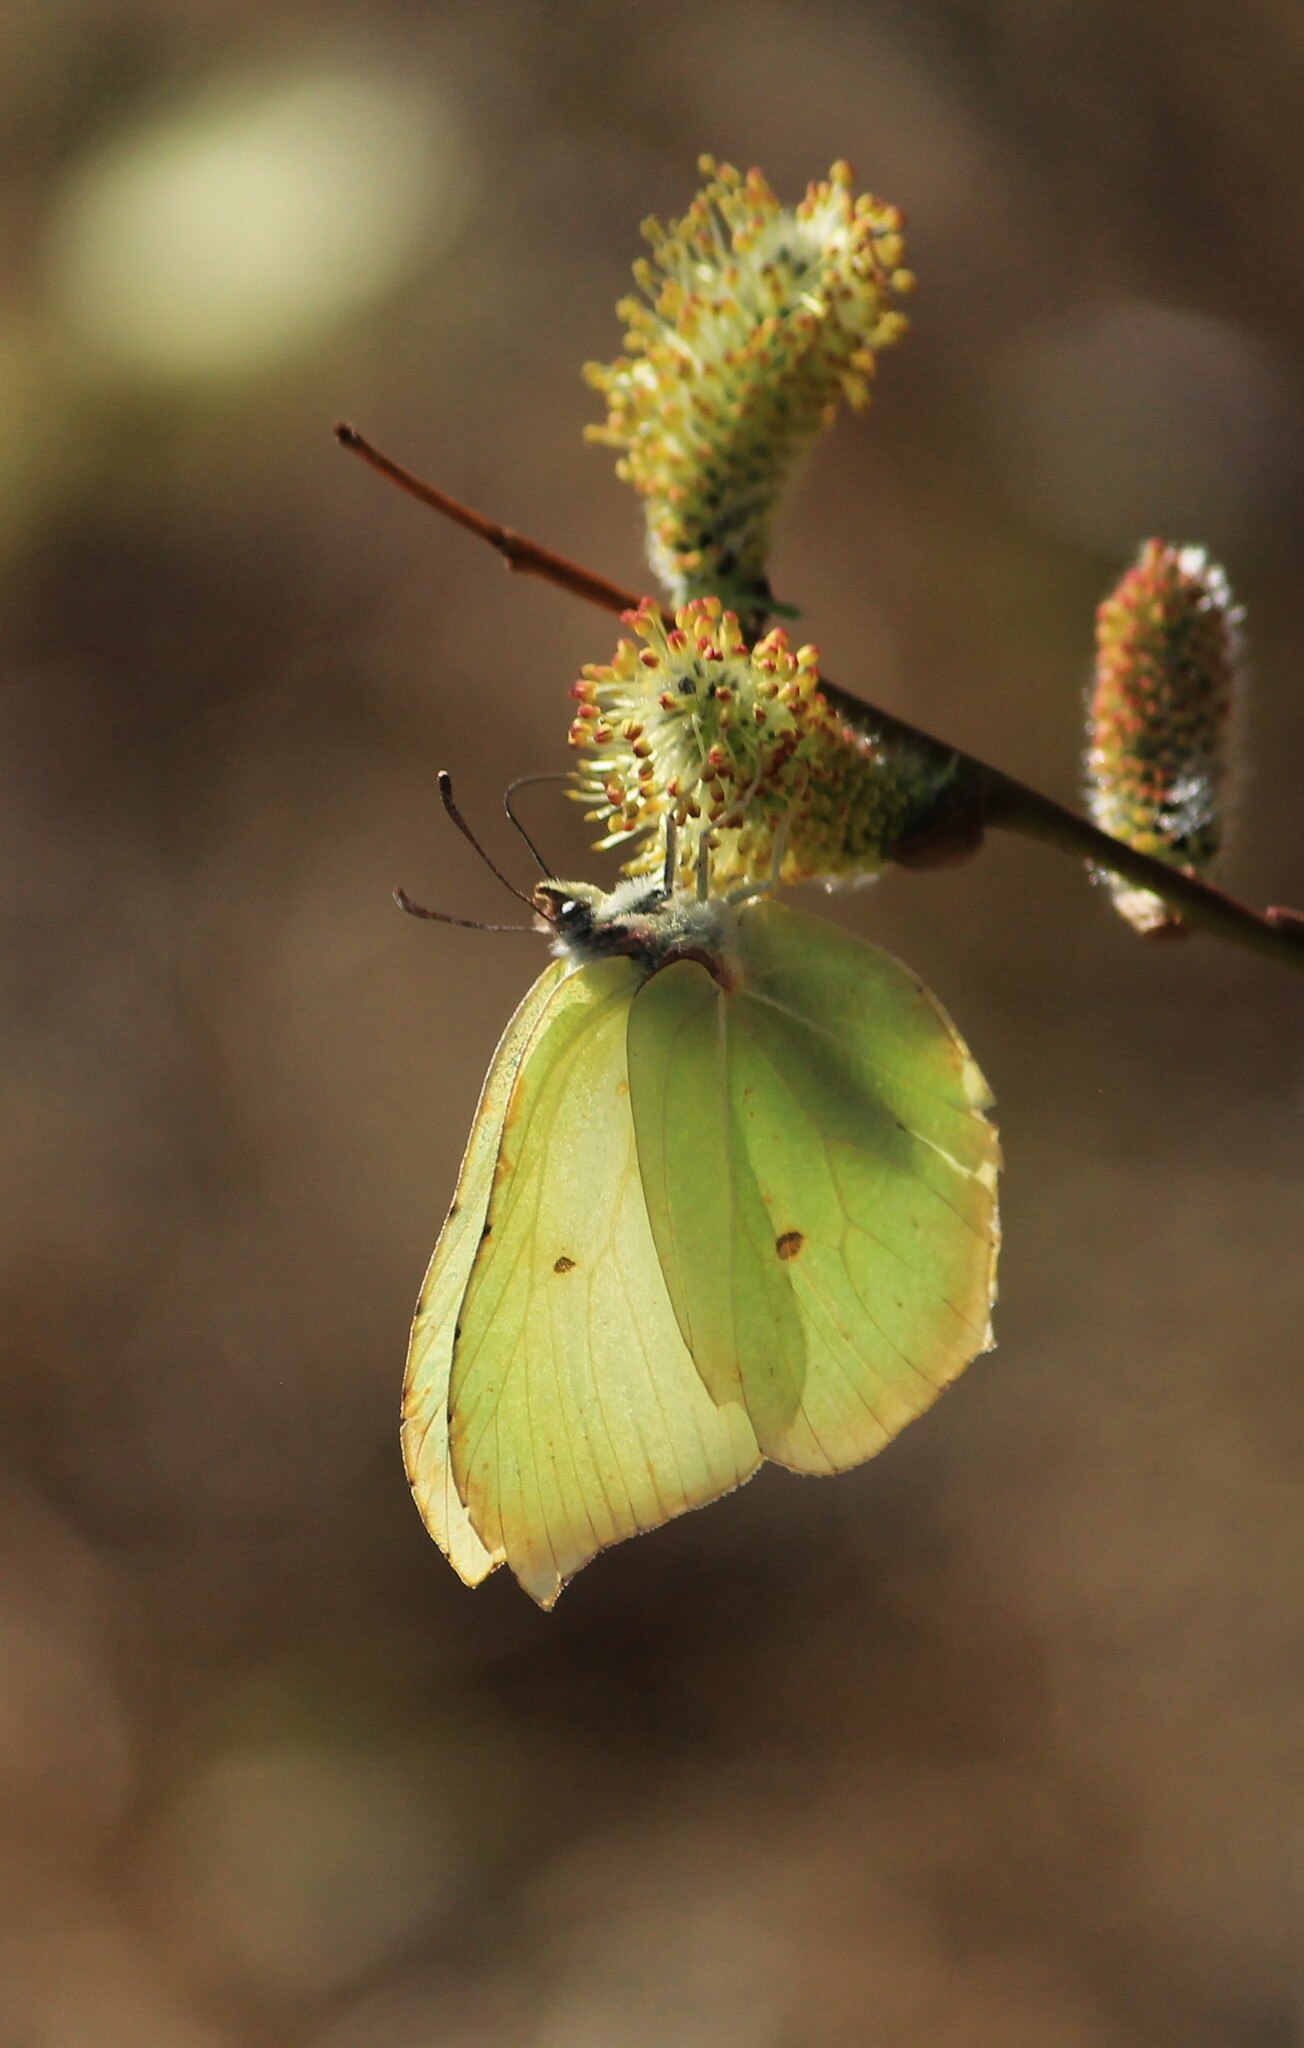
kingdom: Animalia
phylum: Arthropoda
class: Insecta
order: Lepidoptera
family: Pieridae
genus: Gonepteryx
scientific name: Gonepteryx rhamni
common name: Brimstone
